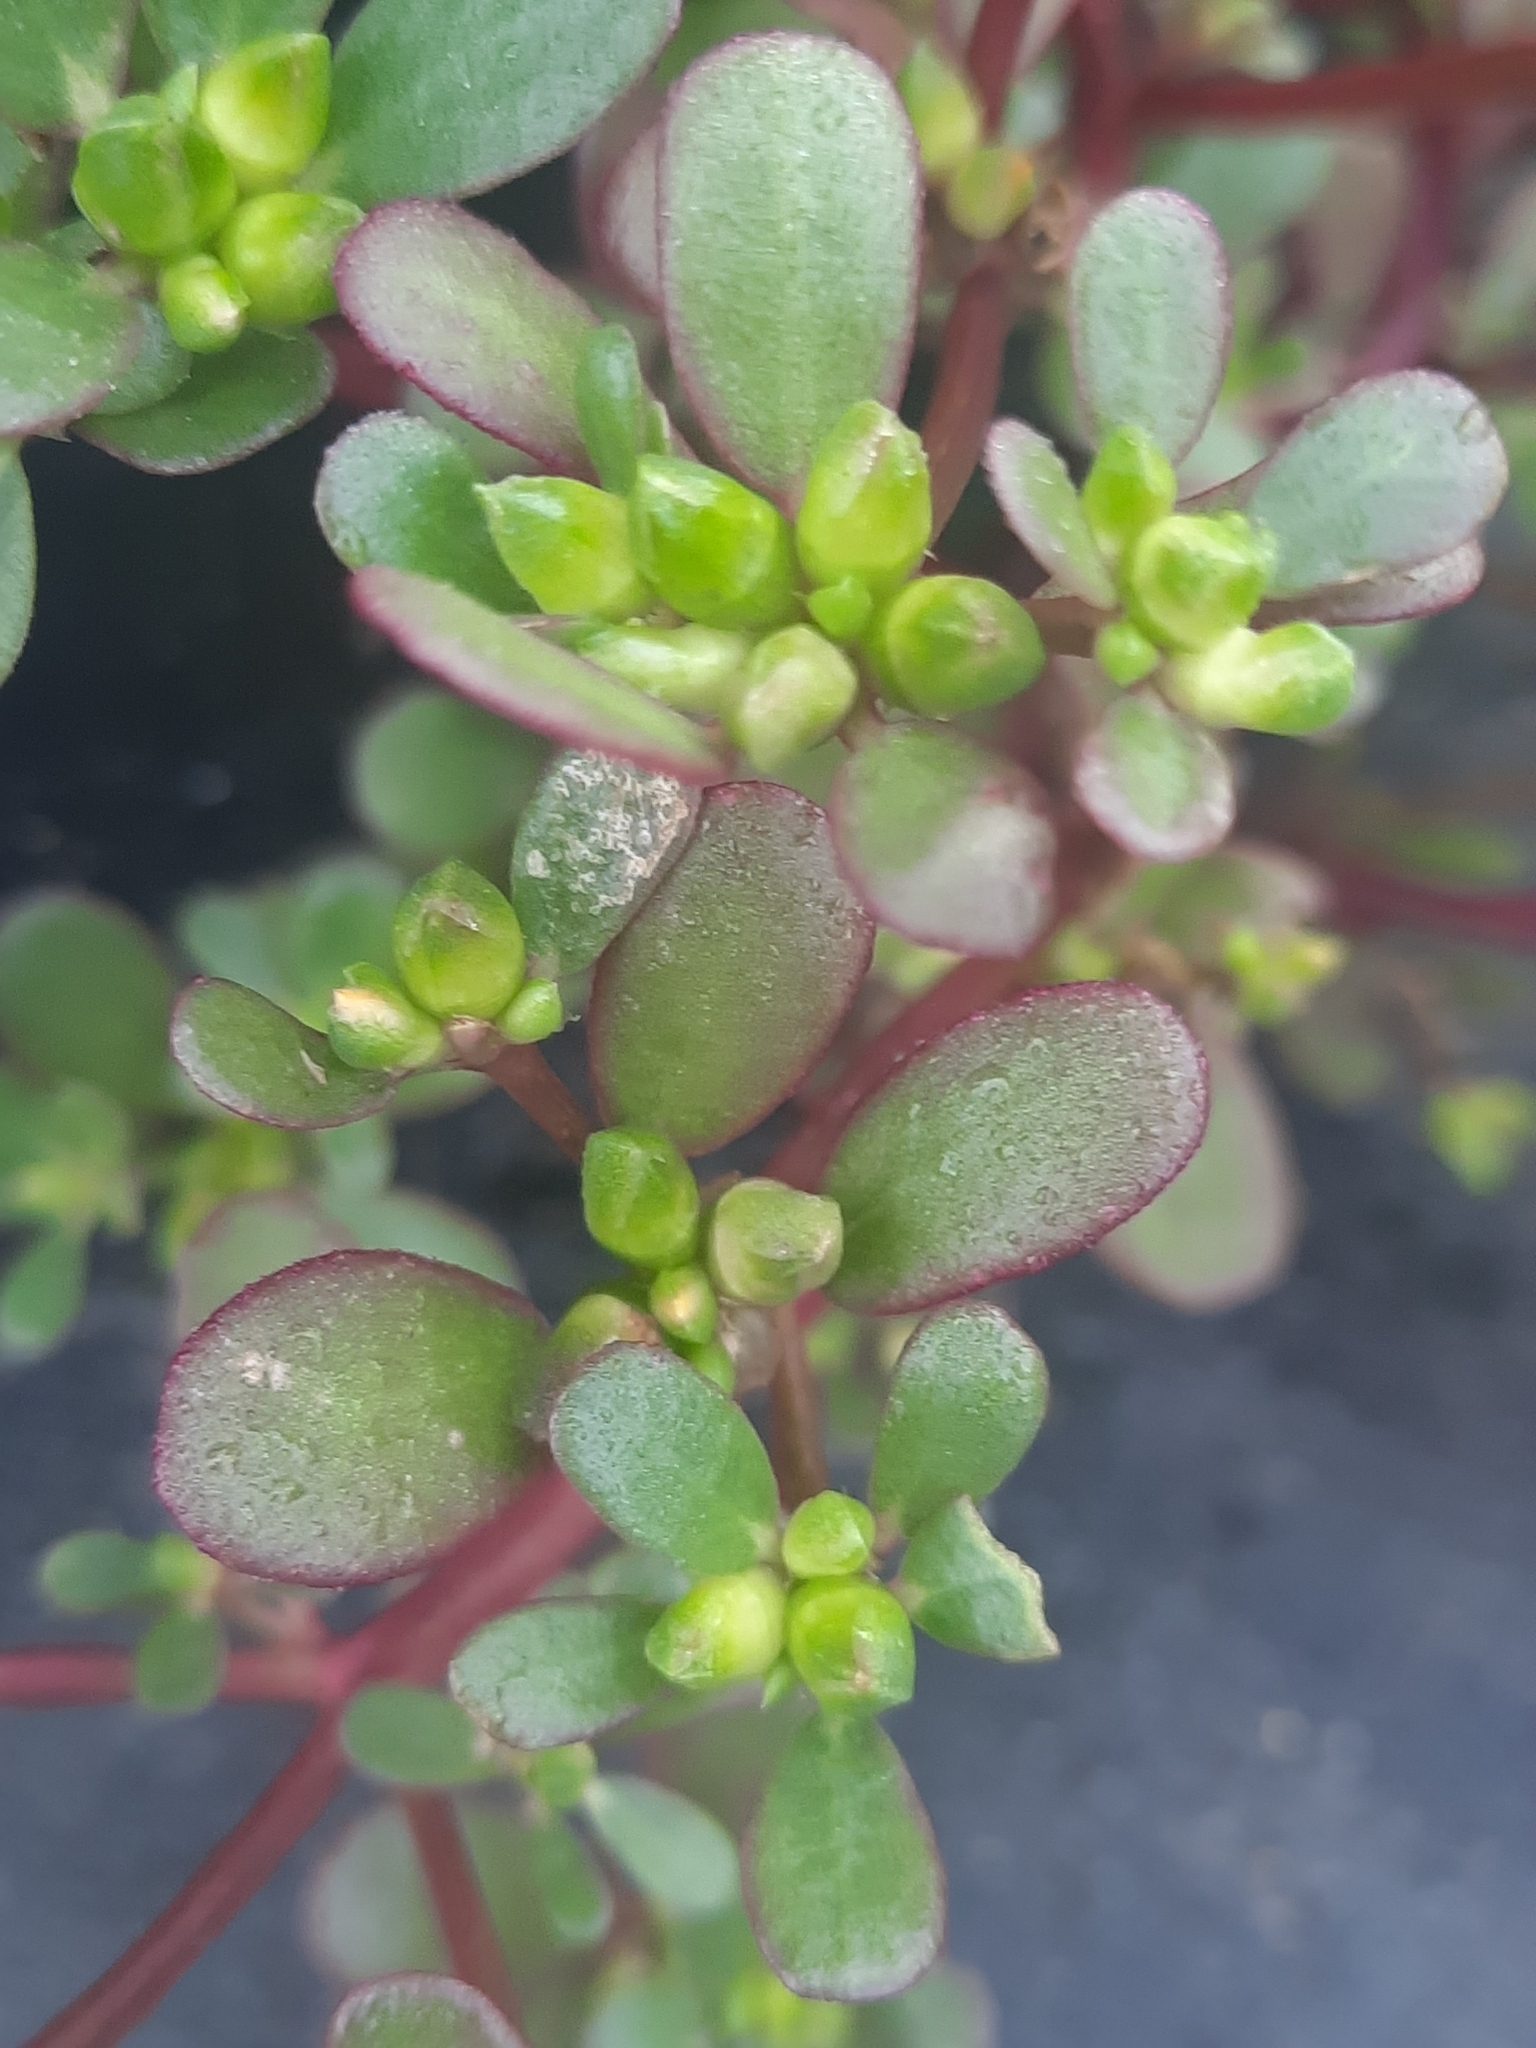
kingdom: Plantae
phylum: Tracheophyta
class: Magnoliopsida
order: Caryophyllales
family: Portulacaceae
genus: Portulaca
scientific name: Portulaca oleracea
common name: Common purslane
